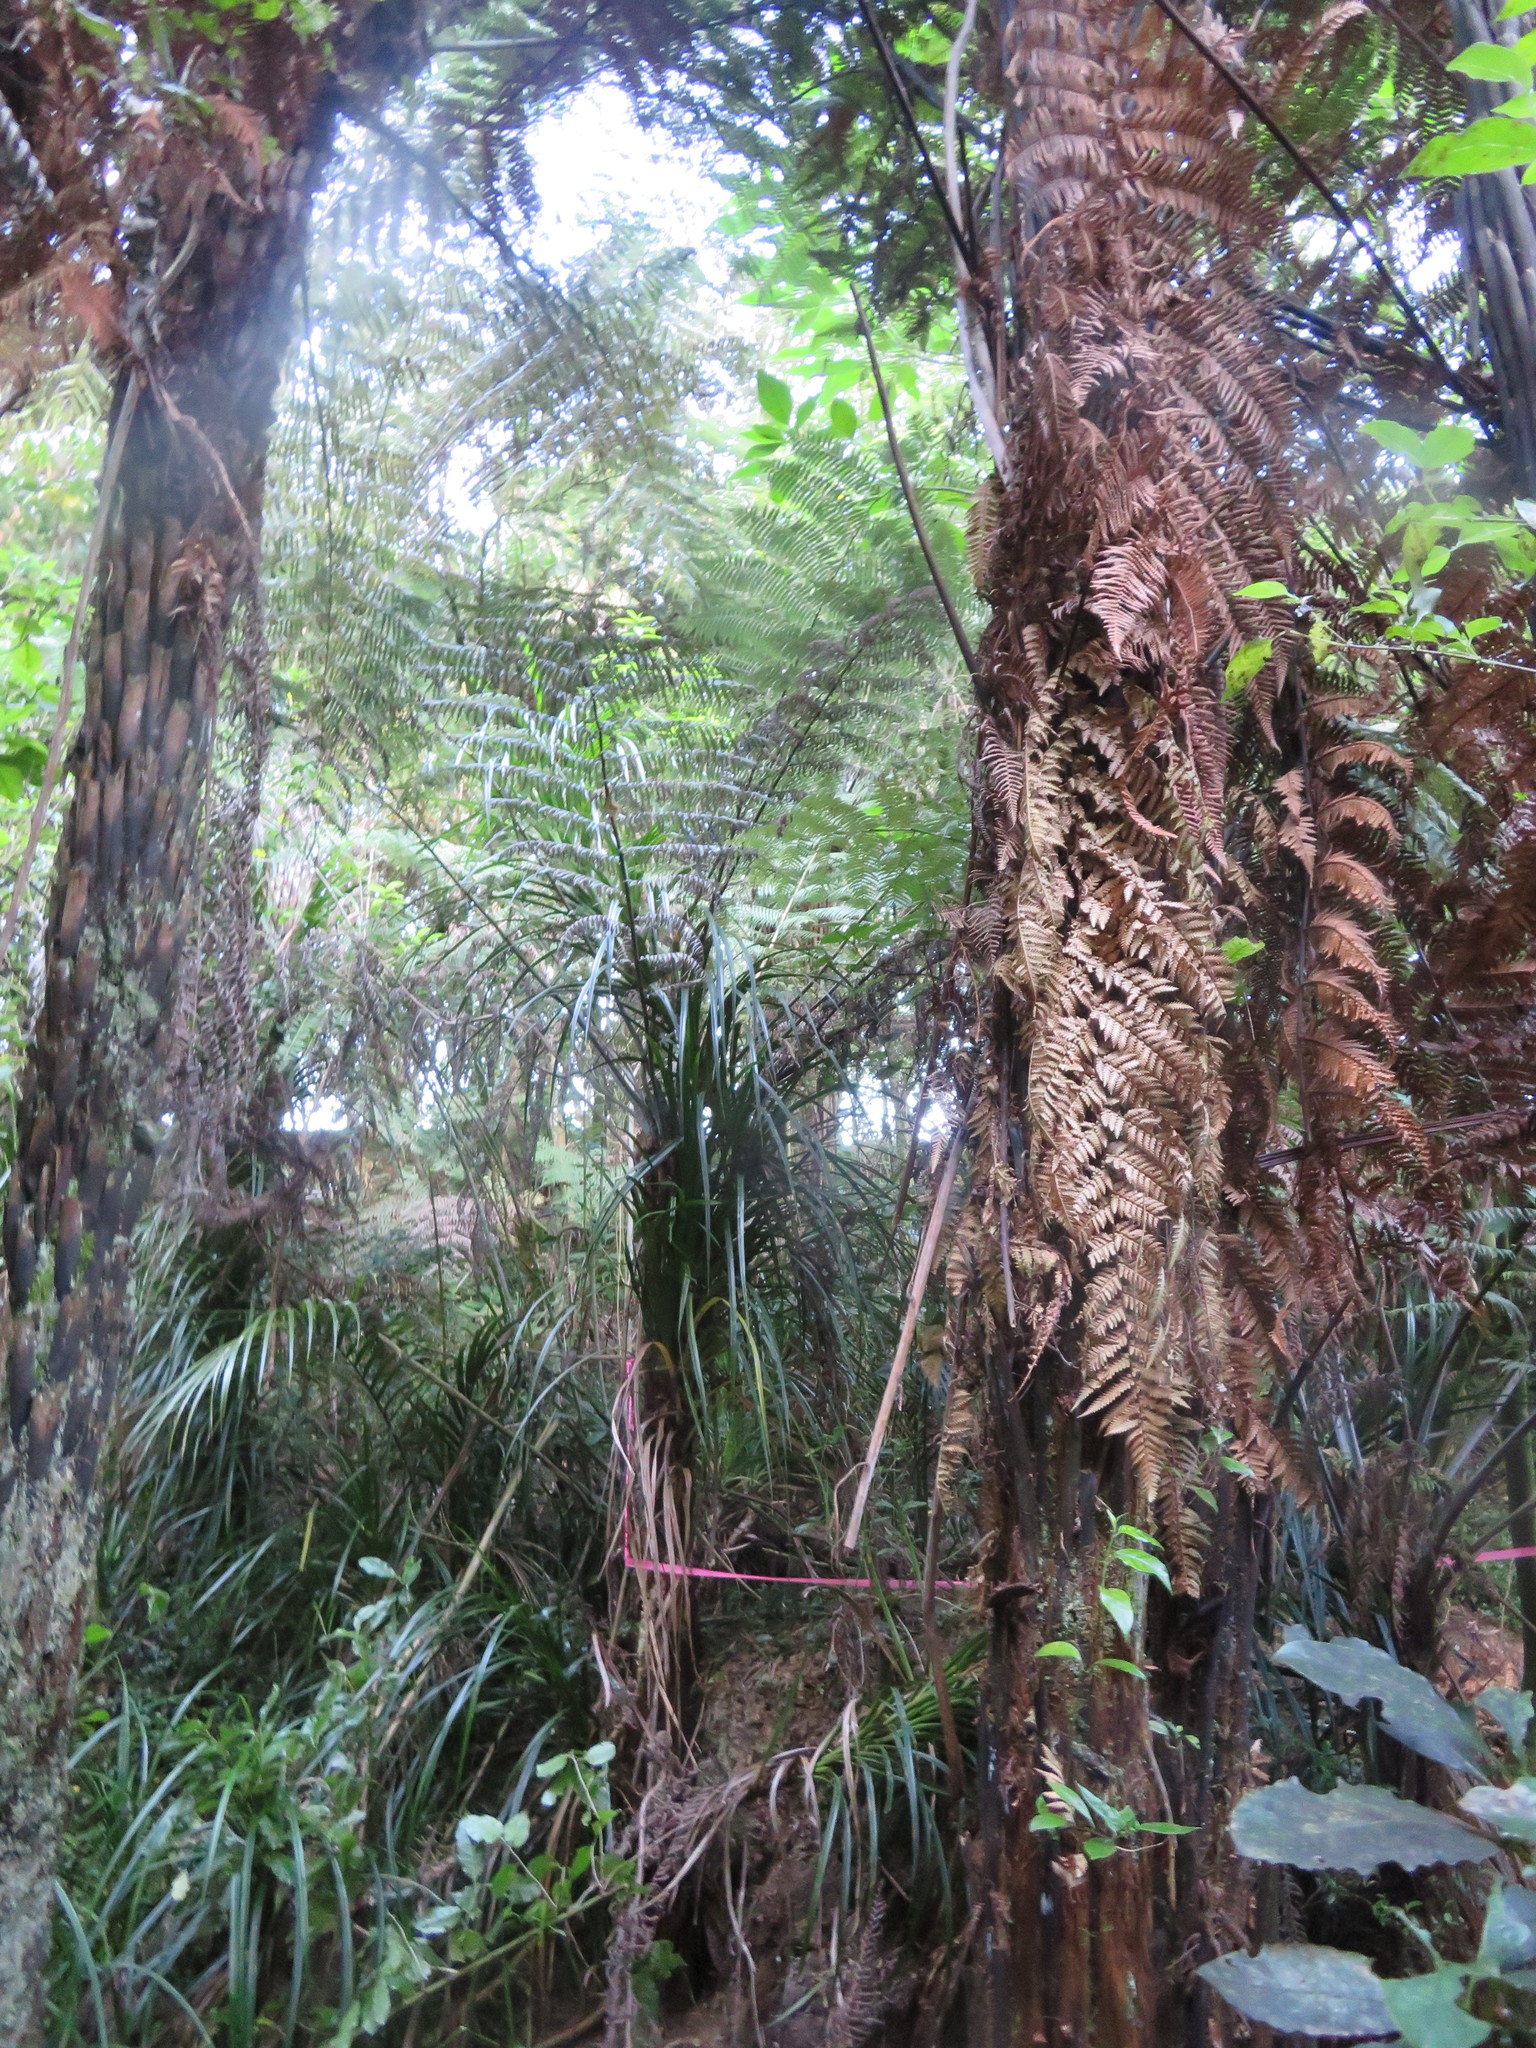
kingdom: Plantae
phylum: Tracheophyta
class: Magnoliopsida
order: Gentianales
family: Loganiaceae
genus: Geniostoma
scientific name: Geniostoma ligustrifolium
